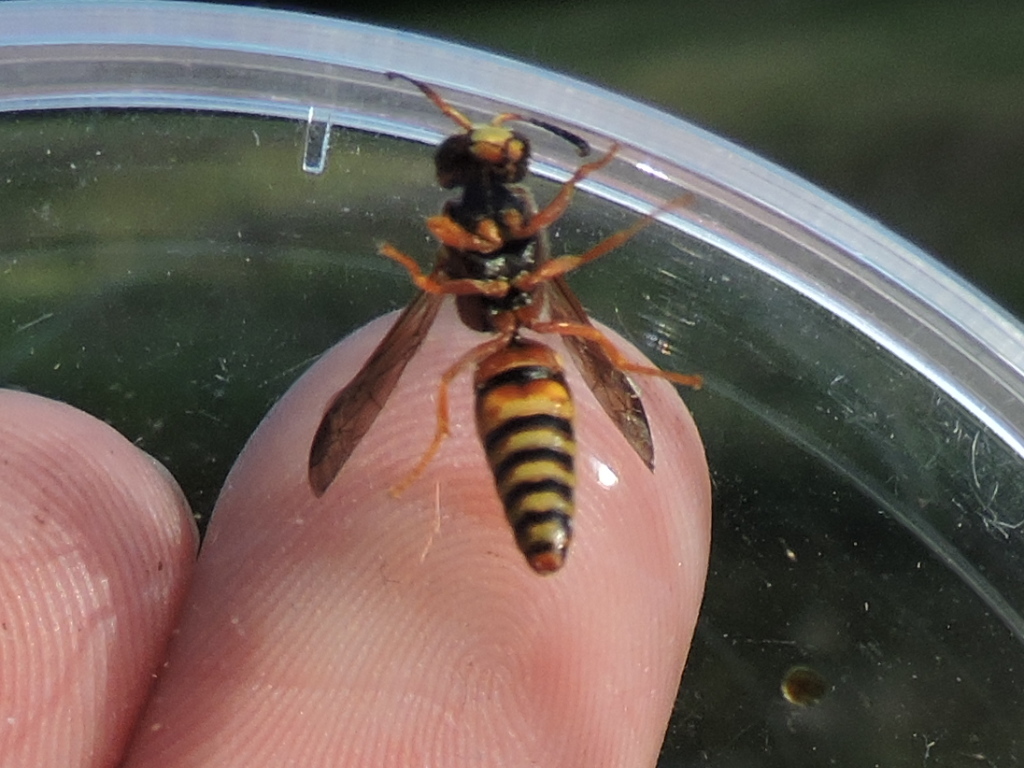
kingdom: Animalia
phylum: Arthropoda
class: Insecta
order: Hymenoptera
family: Eumenidae
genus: Euodynerus
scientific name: Euodynerus pratensis
